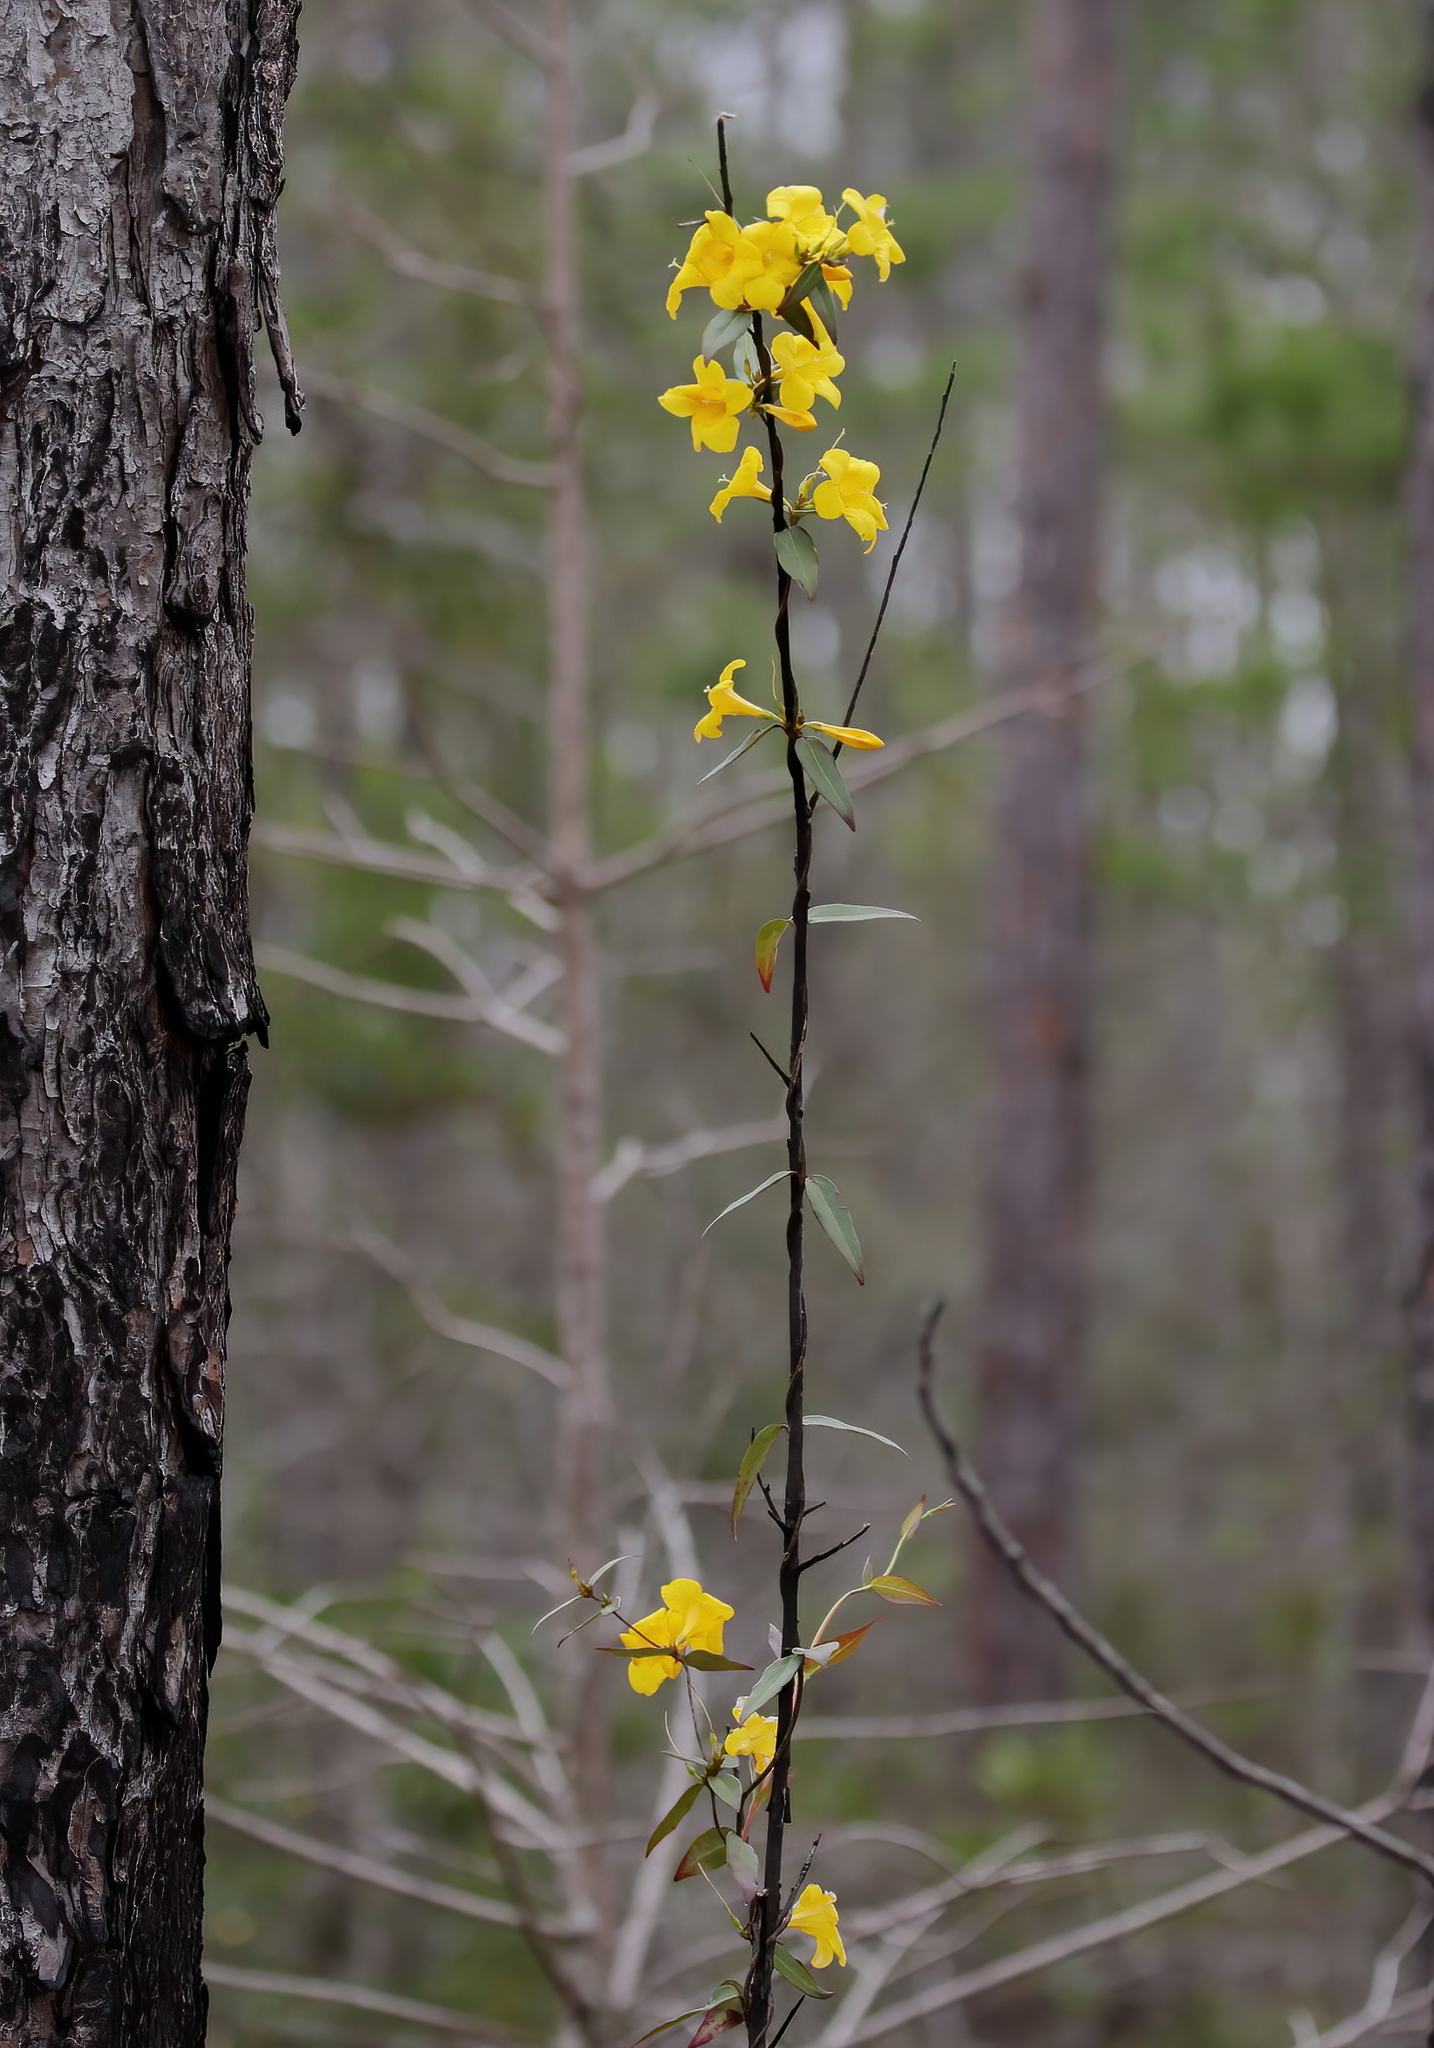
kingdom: Plantae
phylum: Tracheophyta
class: Magnoliopsida
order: Gentianales
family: Gelsemiaceae
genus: Gelsemium
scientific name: Gelsemium sempervirens
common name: Carolina-jasmine
